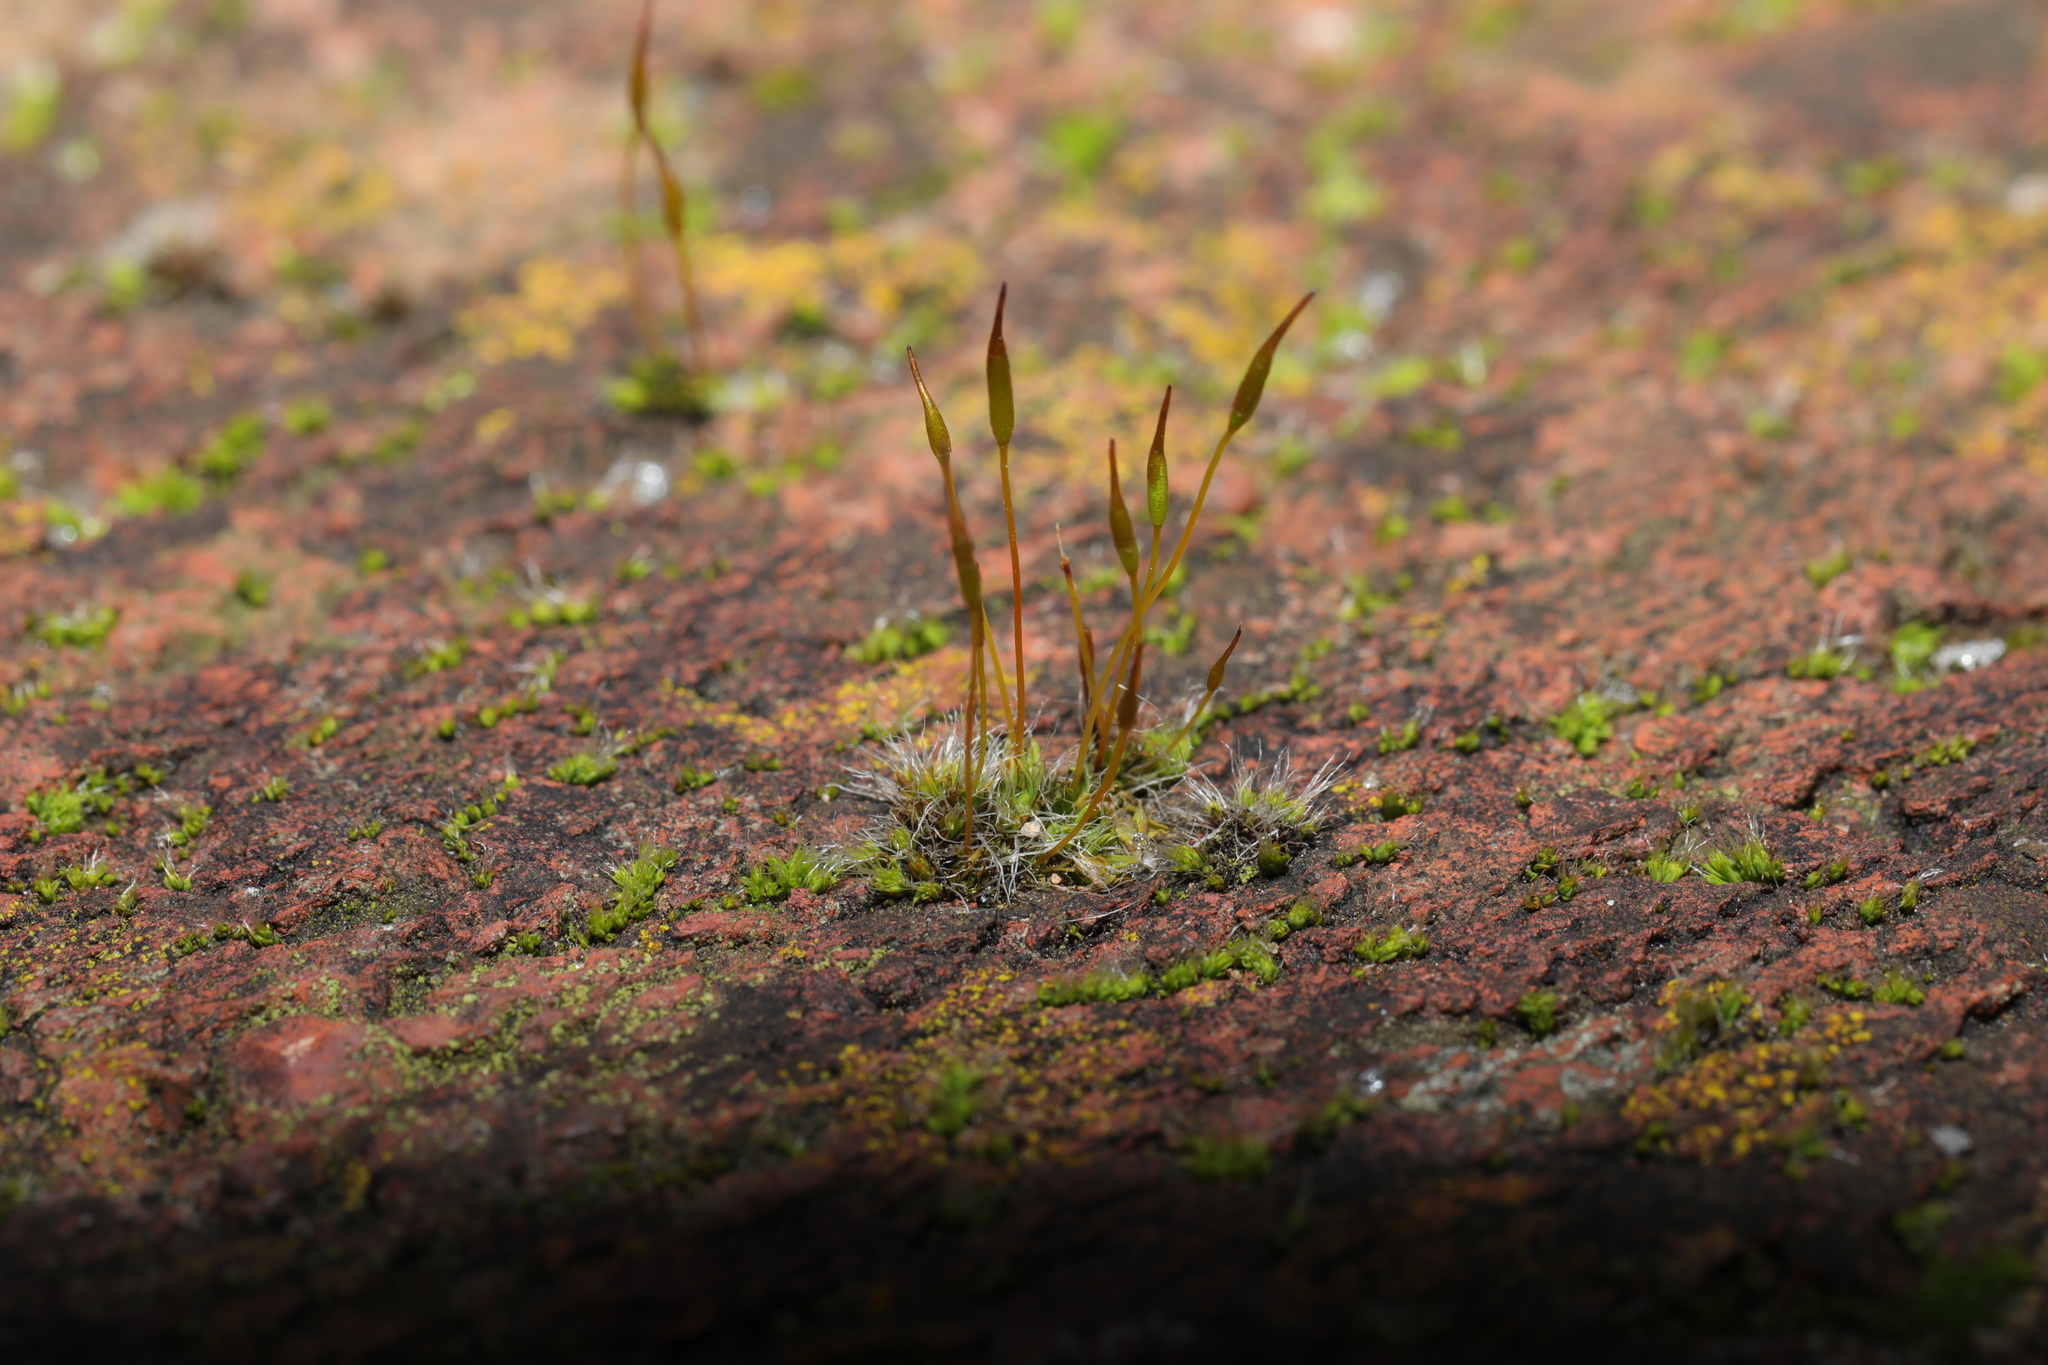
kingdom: Plantae
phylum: Bryophyta
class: Bryopsida
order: Pottiales
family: Pottiaceae
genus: Tortula
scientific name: Tortula muralis
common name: Wall screw-moss
